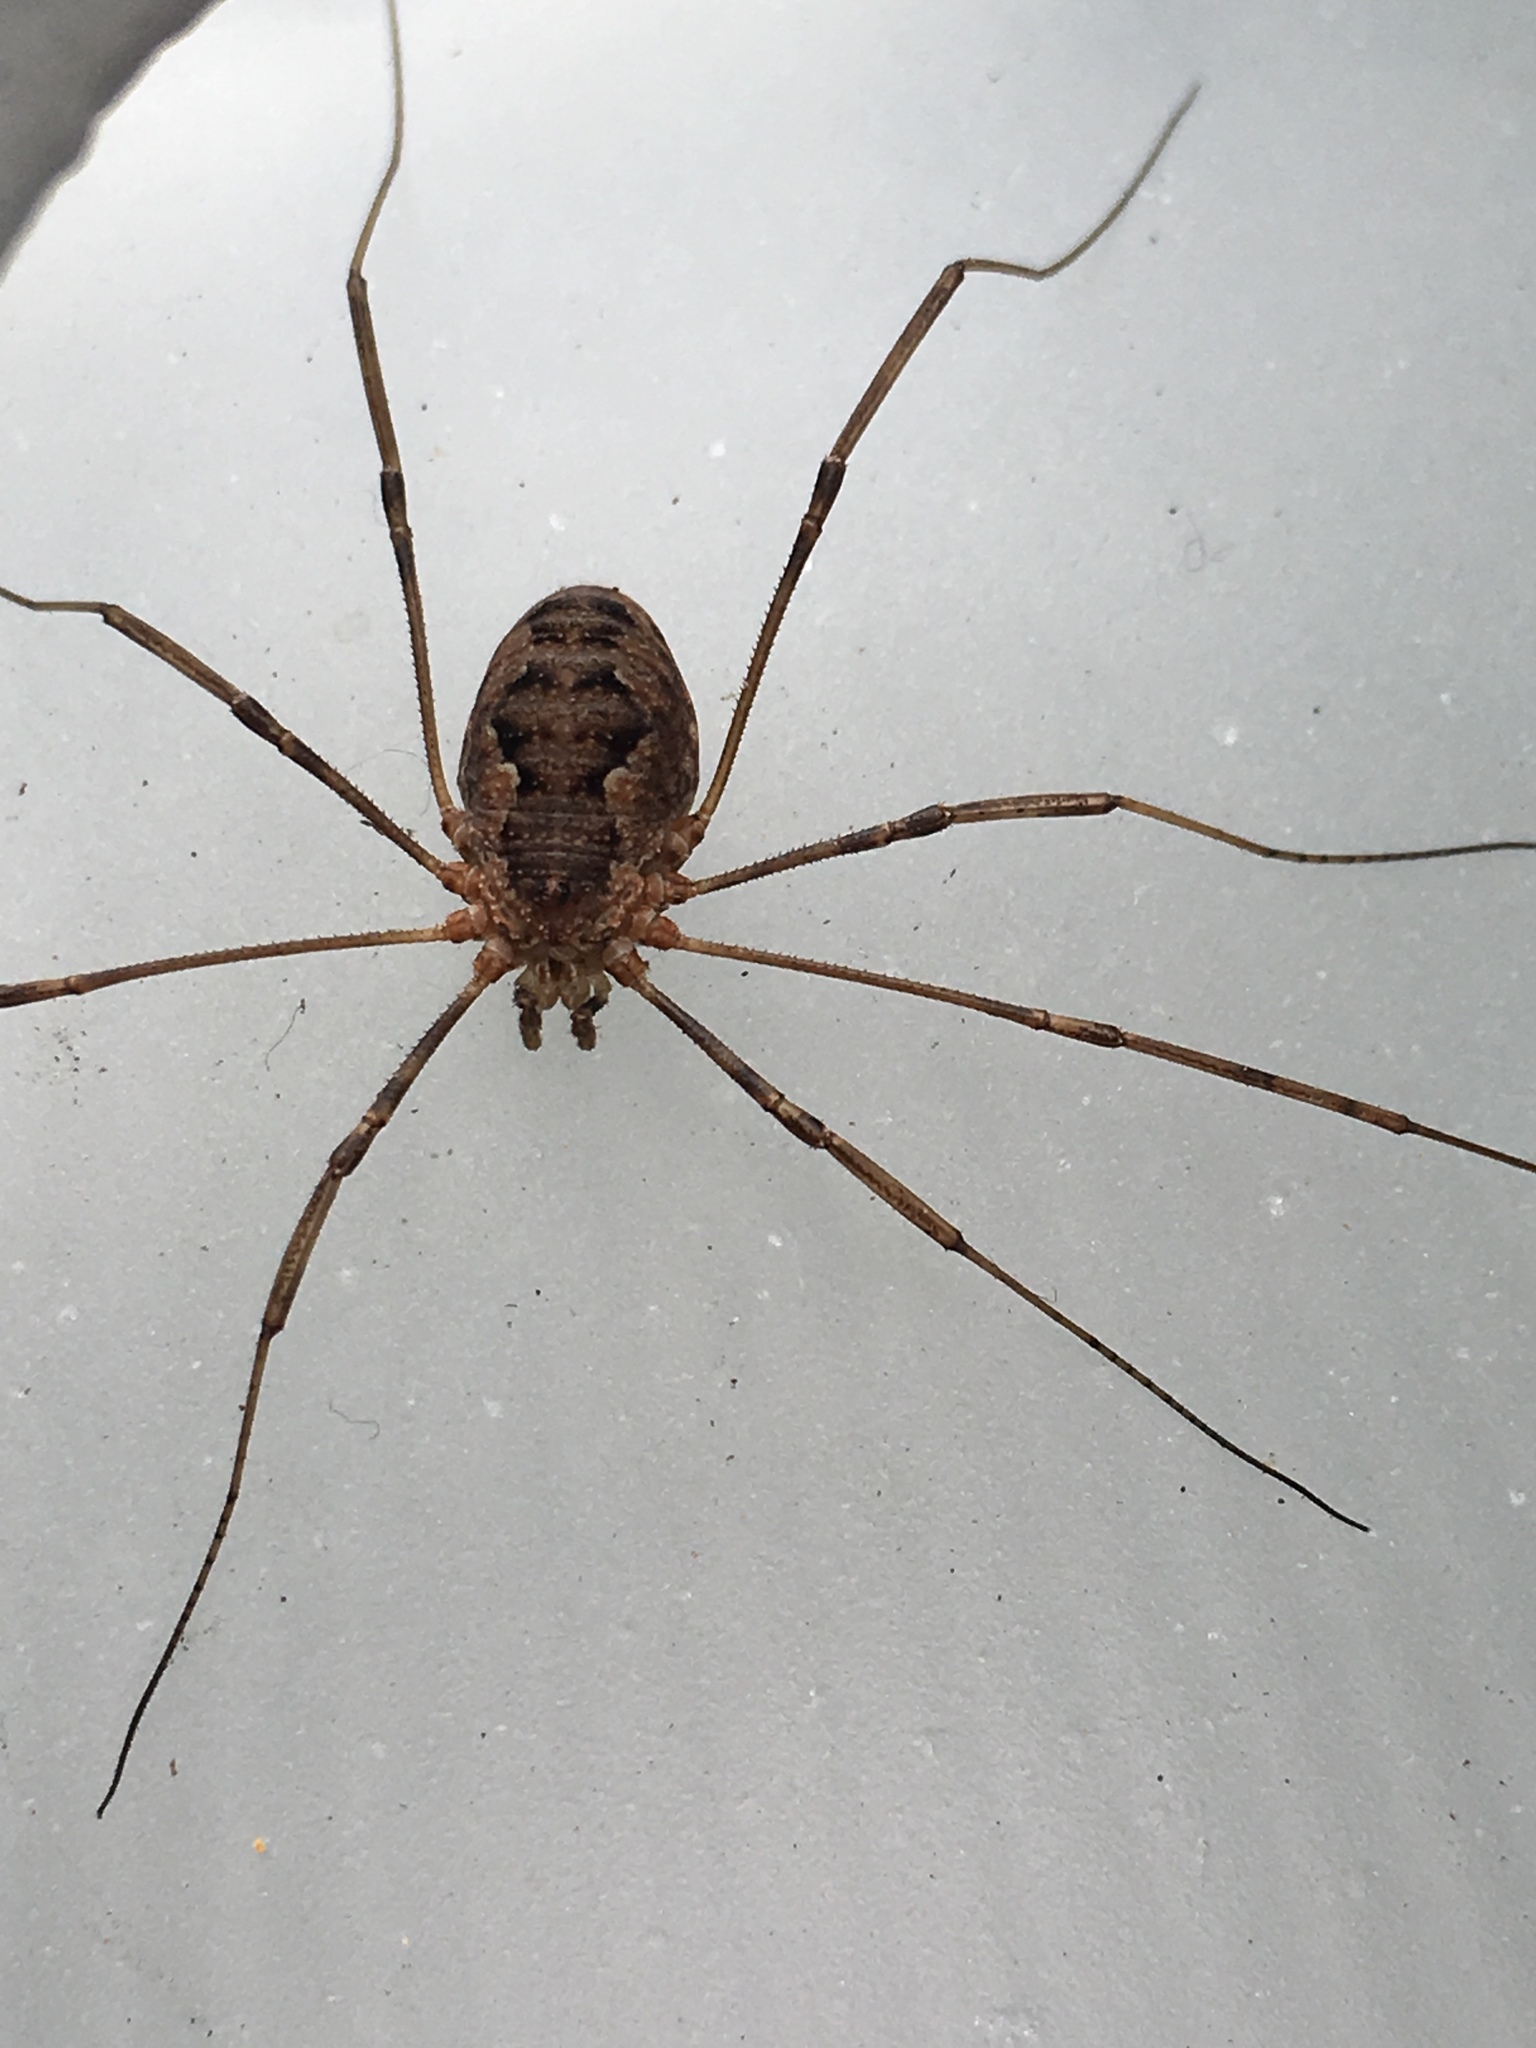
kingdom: Animalia
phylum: Arthropoda
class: Arachnida
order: Opiliones
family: Phalangiidae
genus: Phalangium
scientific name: Phalangium opilio
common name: Daddy longleg
